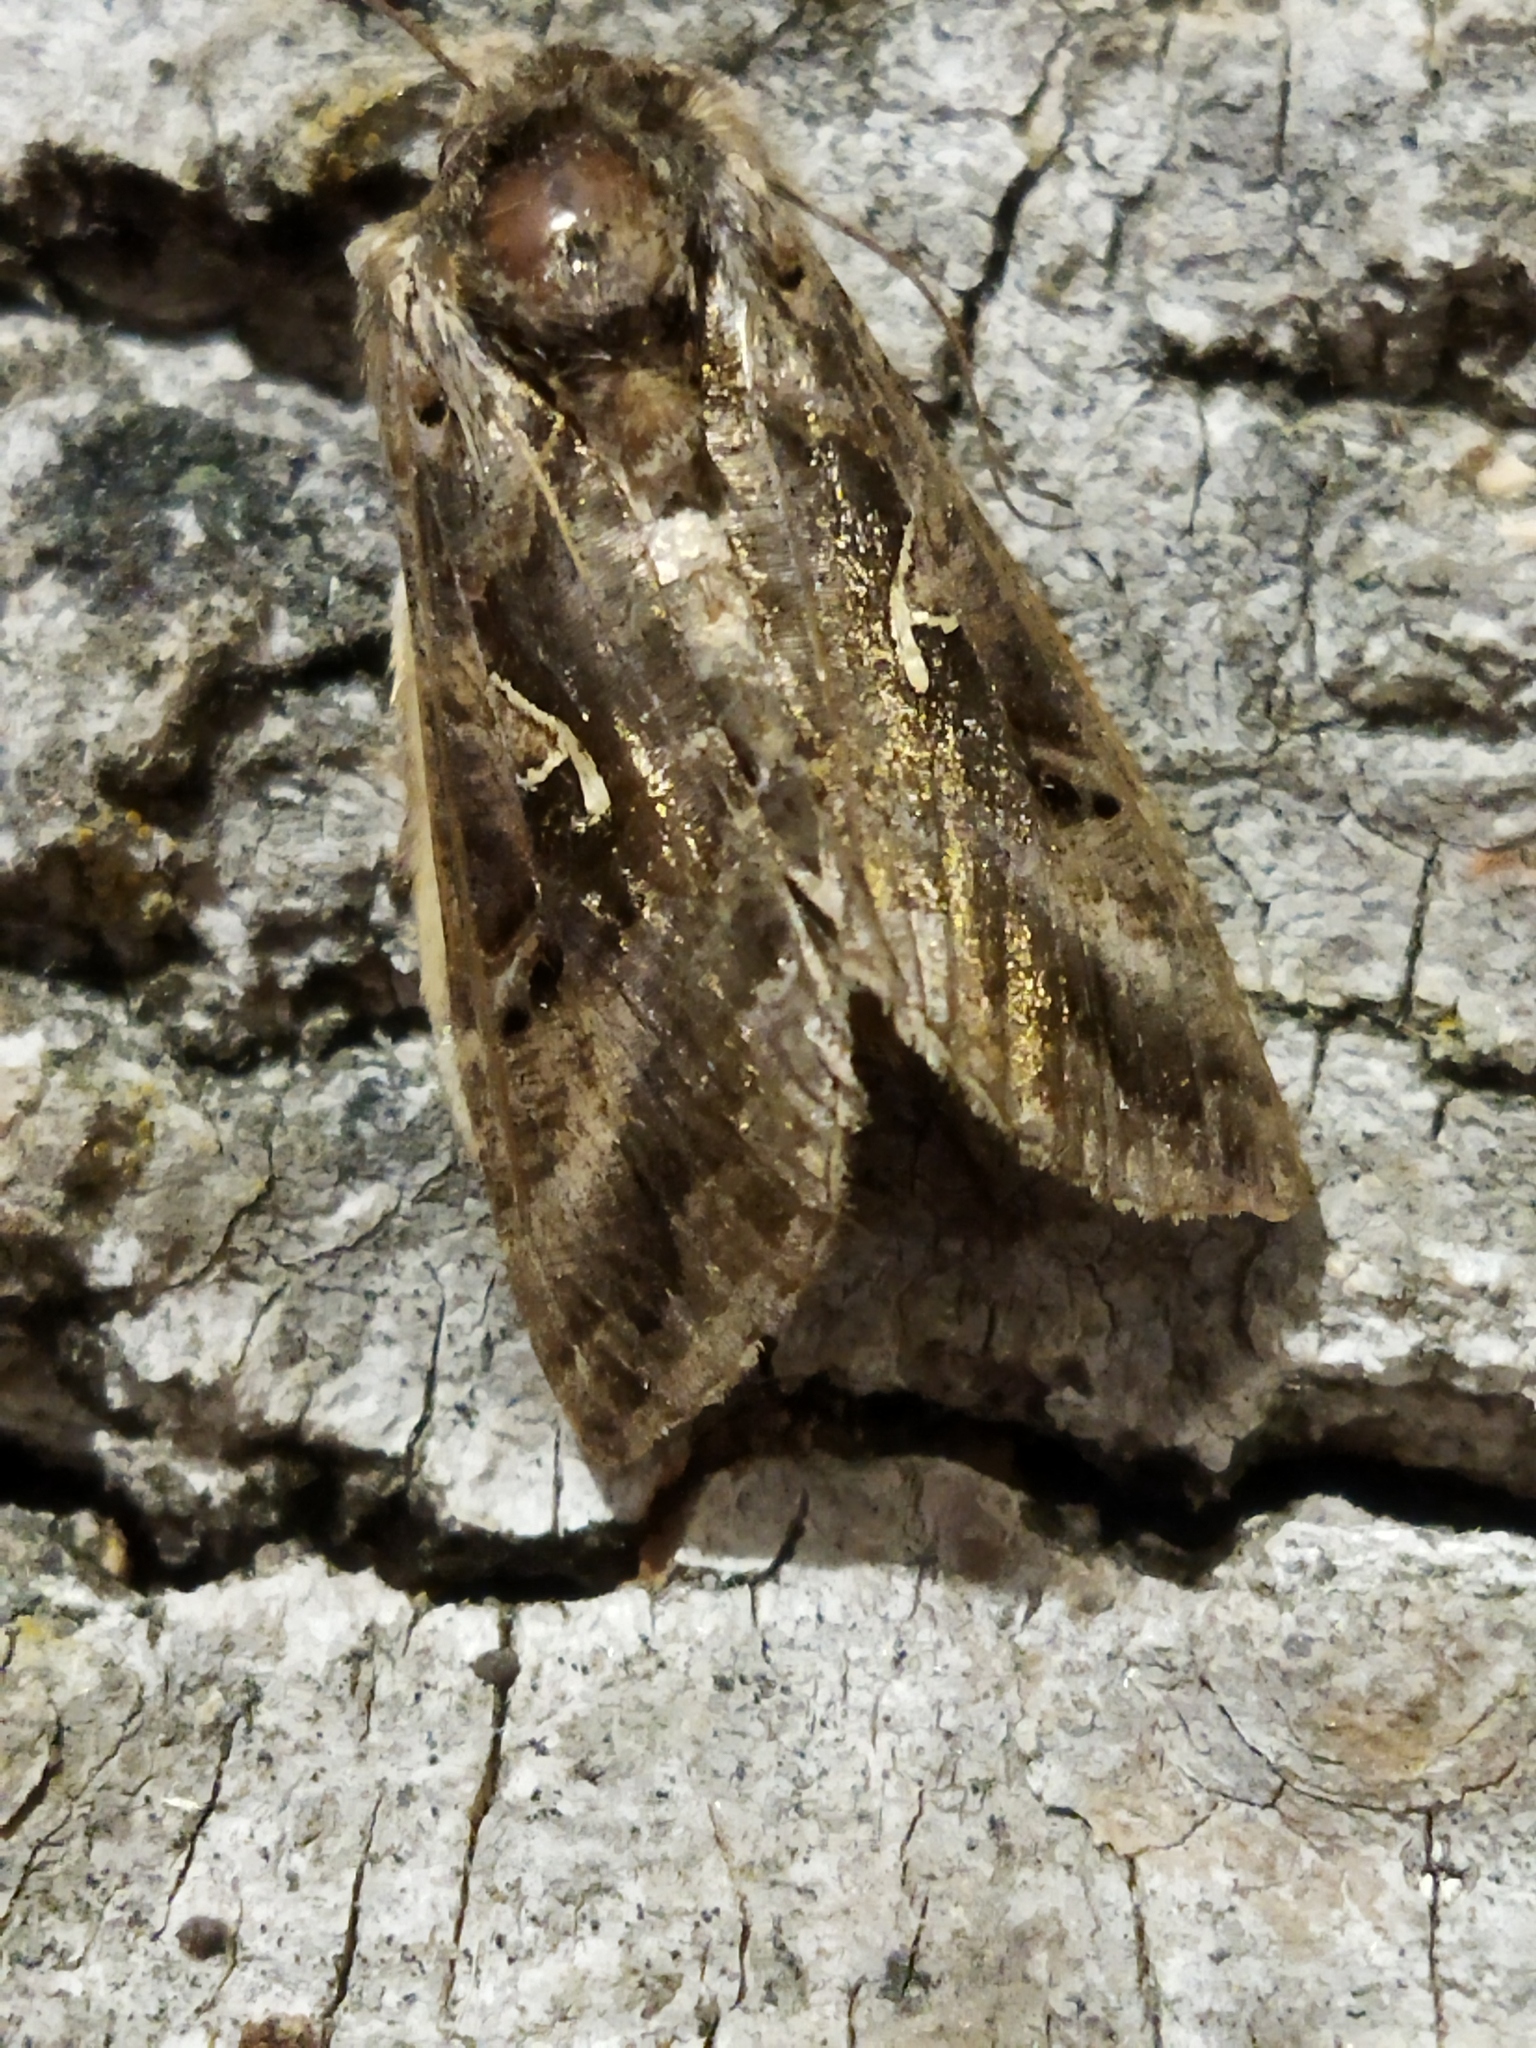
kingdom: Animalia
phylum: Arthropoda
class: Insecta
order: Lepidoptera
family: Noctuidae
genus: Autographa
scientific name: Autographa gamma
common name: Silver y
